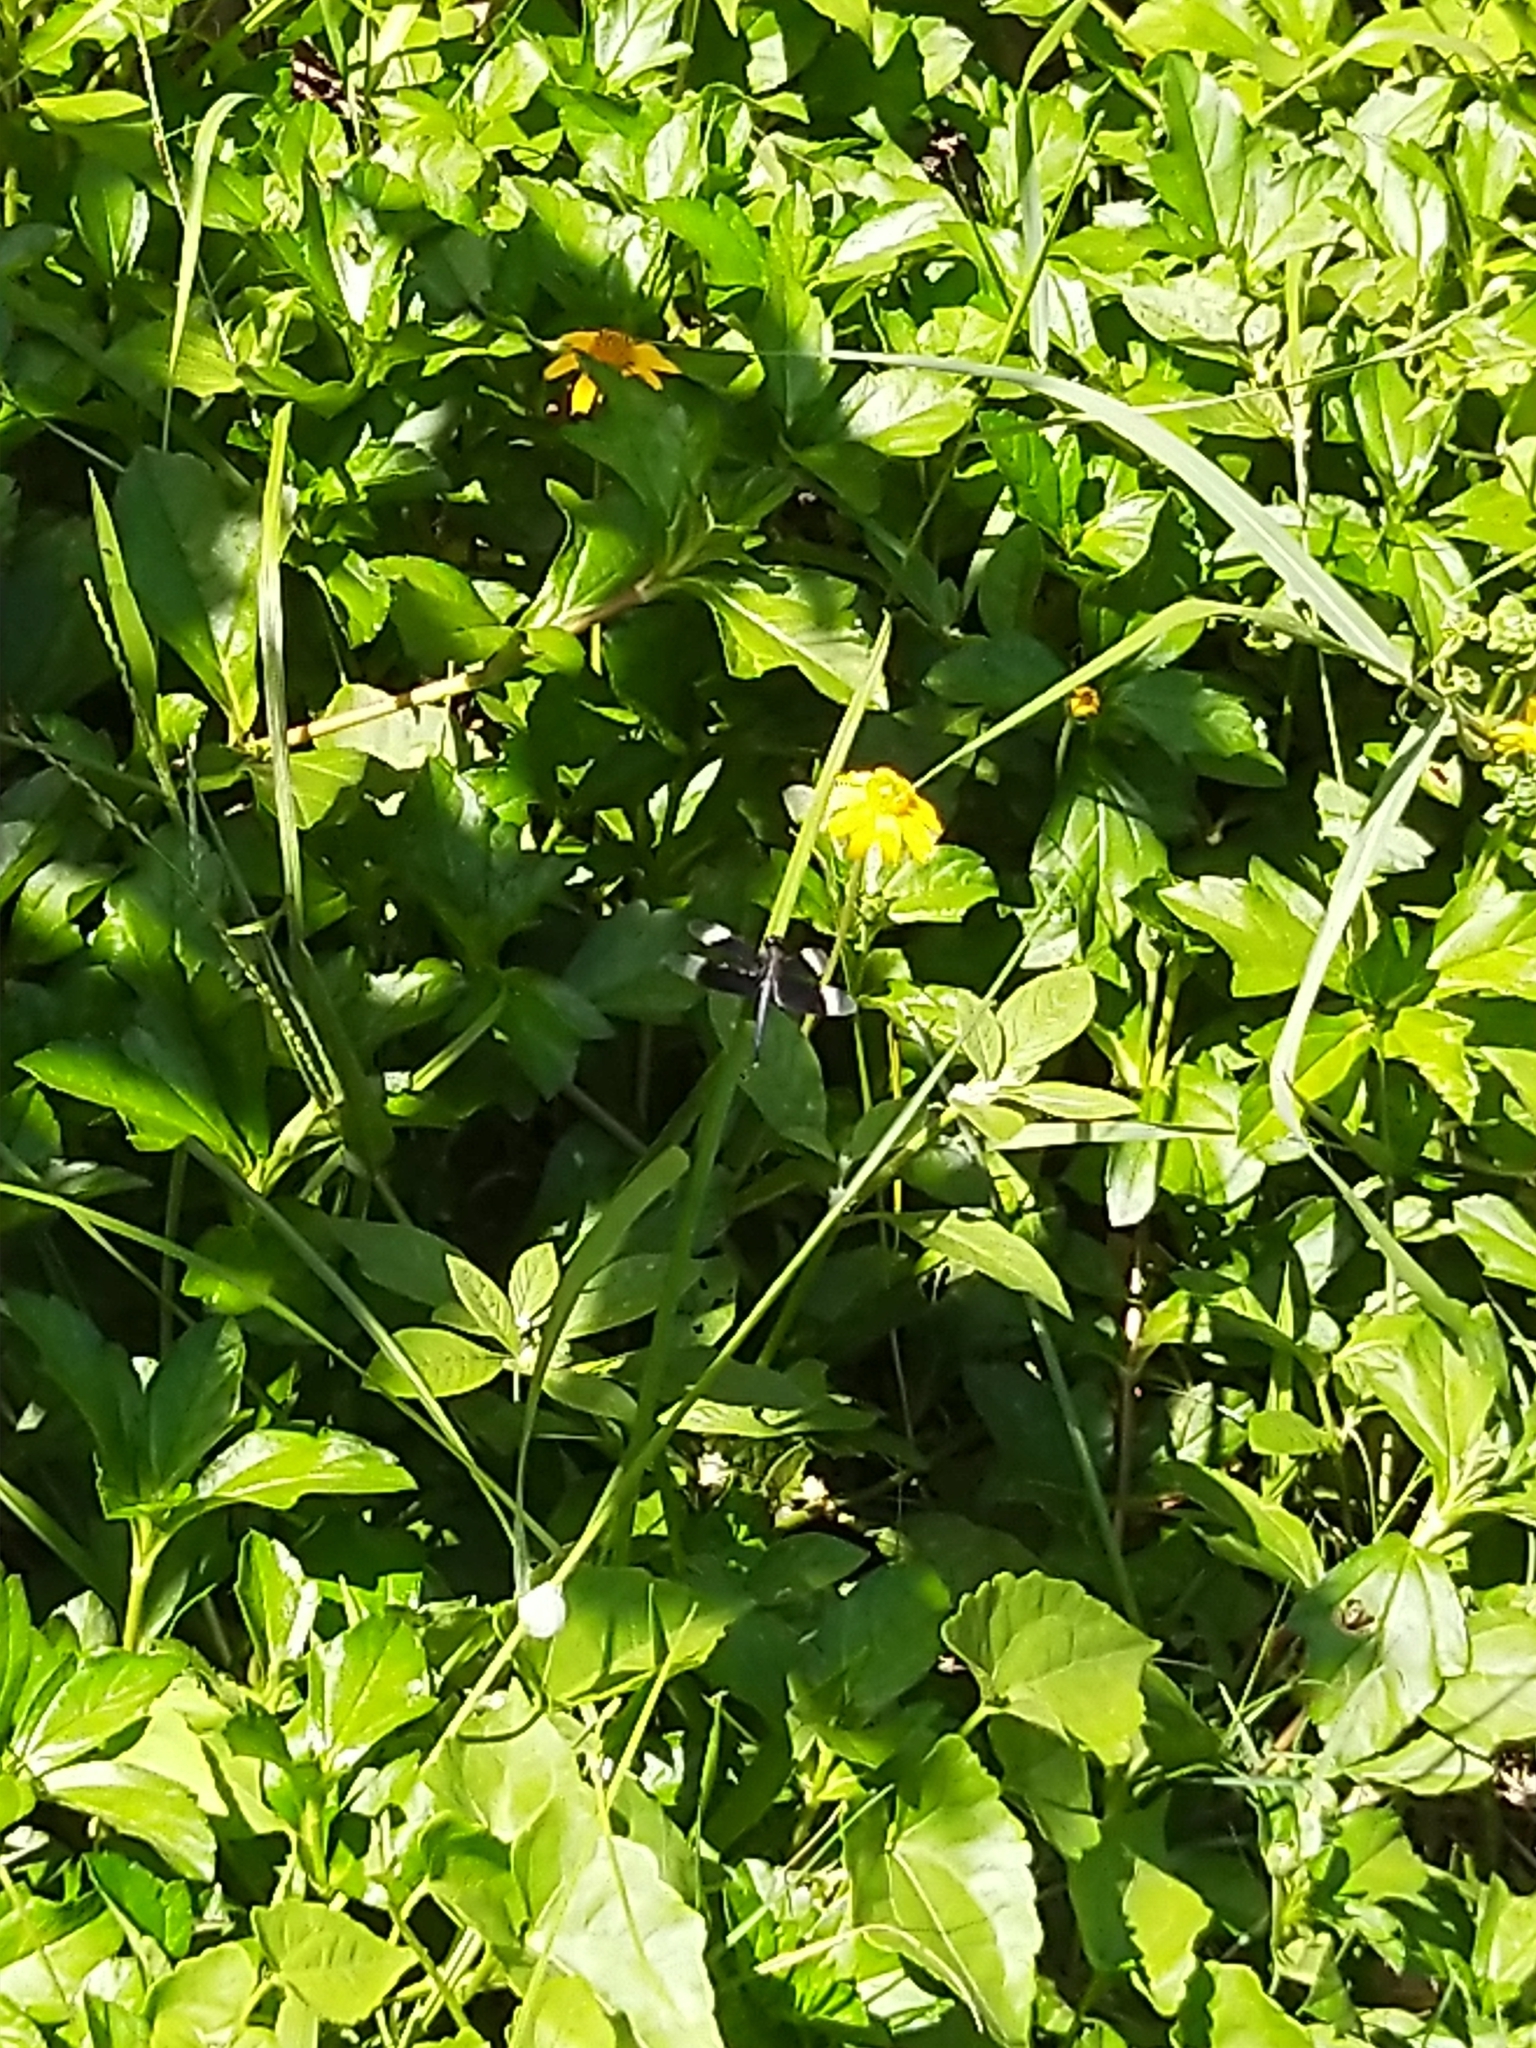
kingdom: Animalia
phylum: Arthropoda
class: Insecta
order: Odonata
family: Libellulidae
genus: Neurothemis
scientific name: Neurothemis tullia
